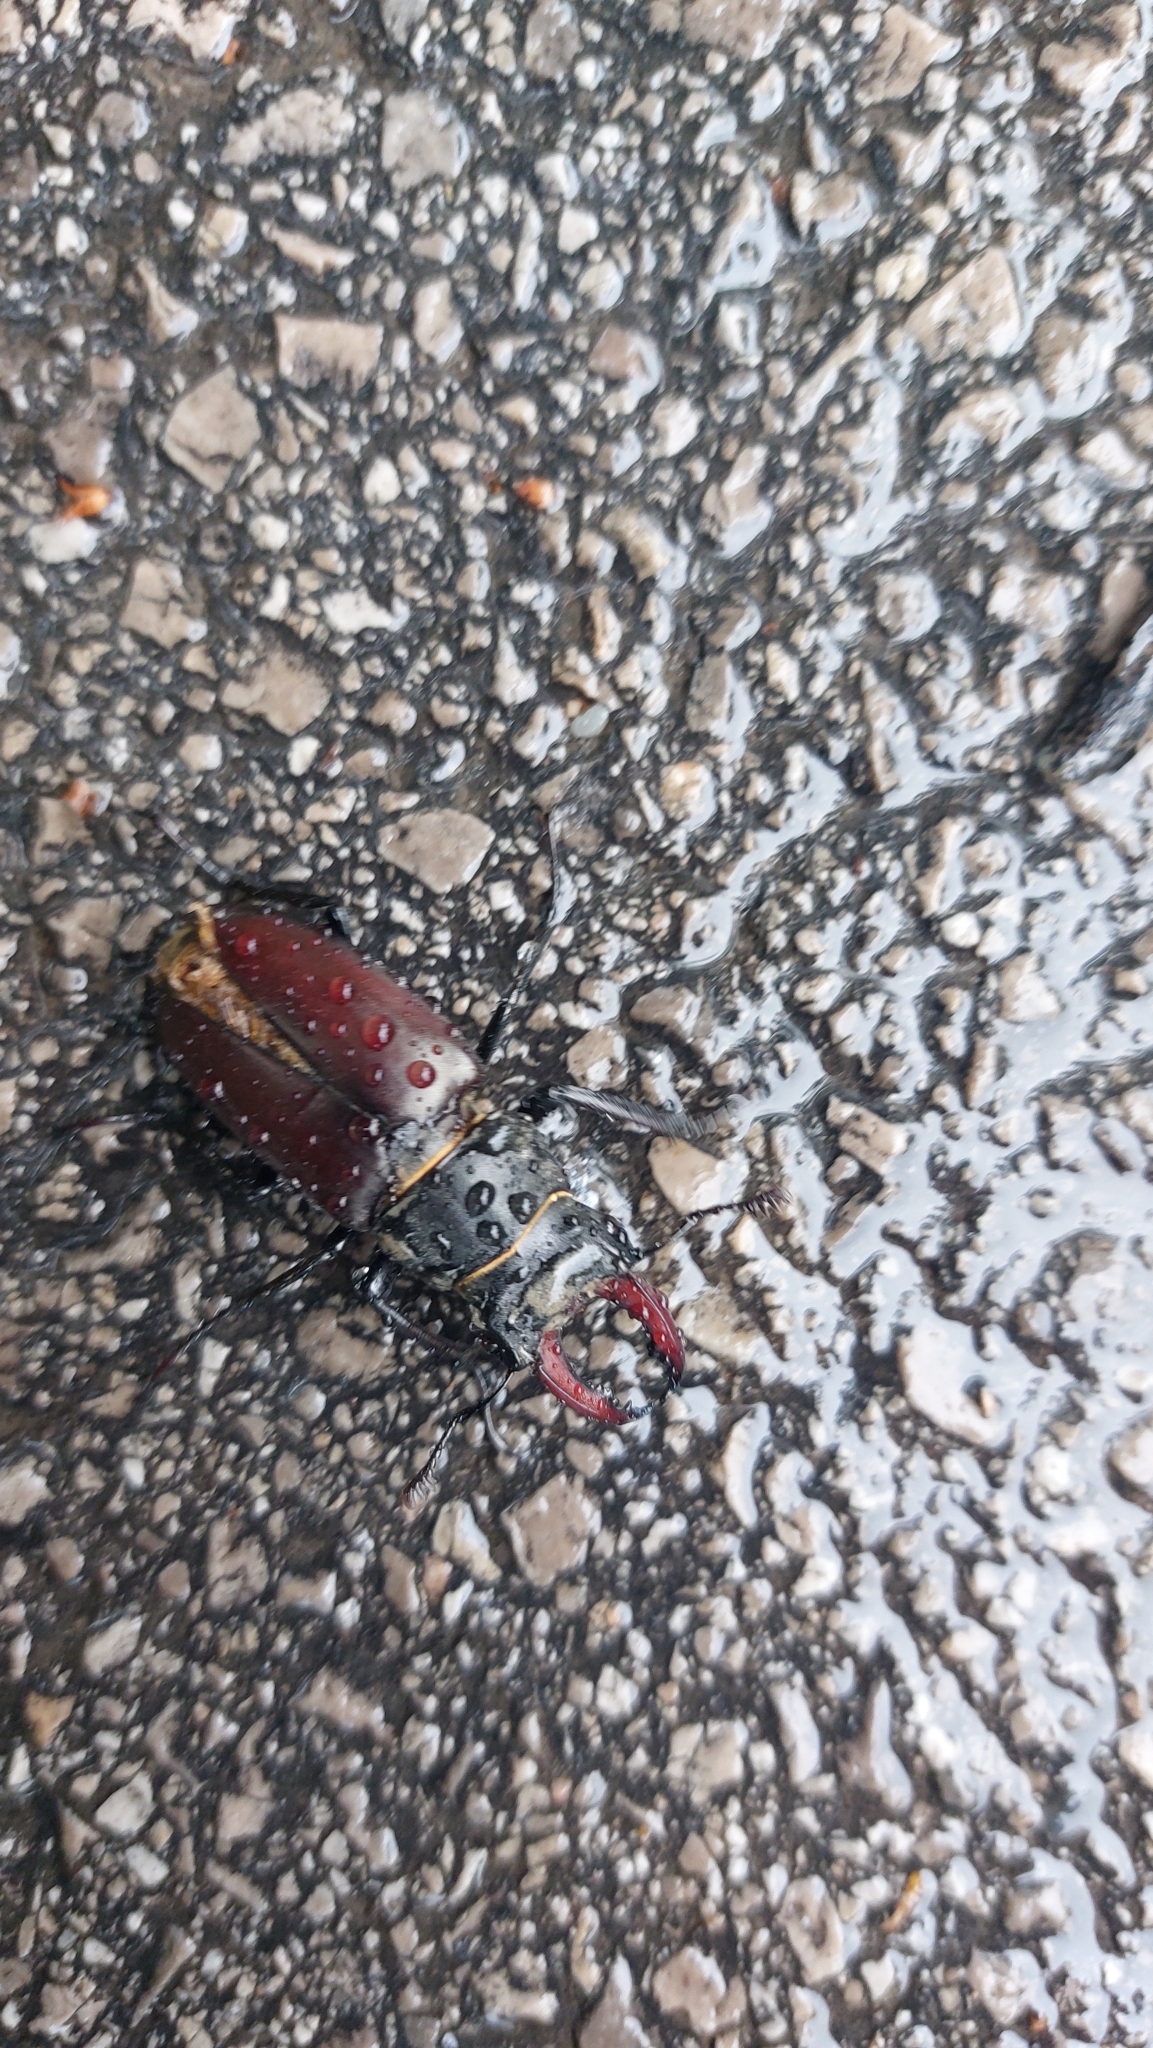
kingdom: Animalia
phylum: Arthropoda
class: Insecta
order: Coleoptera
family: Lucanidae
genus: Lucanus
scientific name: Lucanus cervus
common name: Stag beetle
